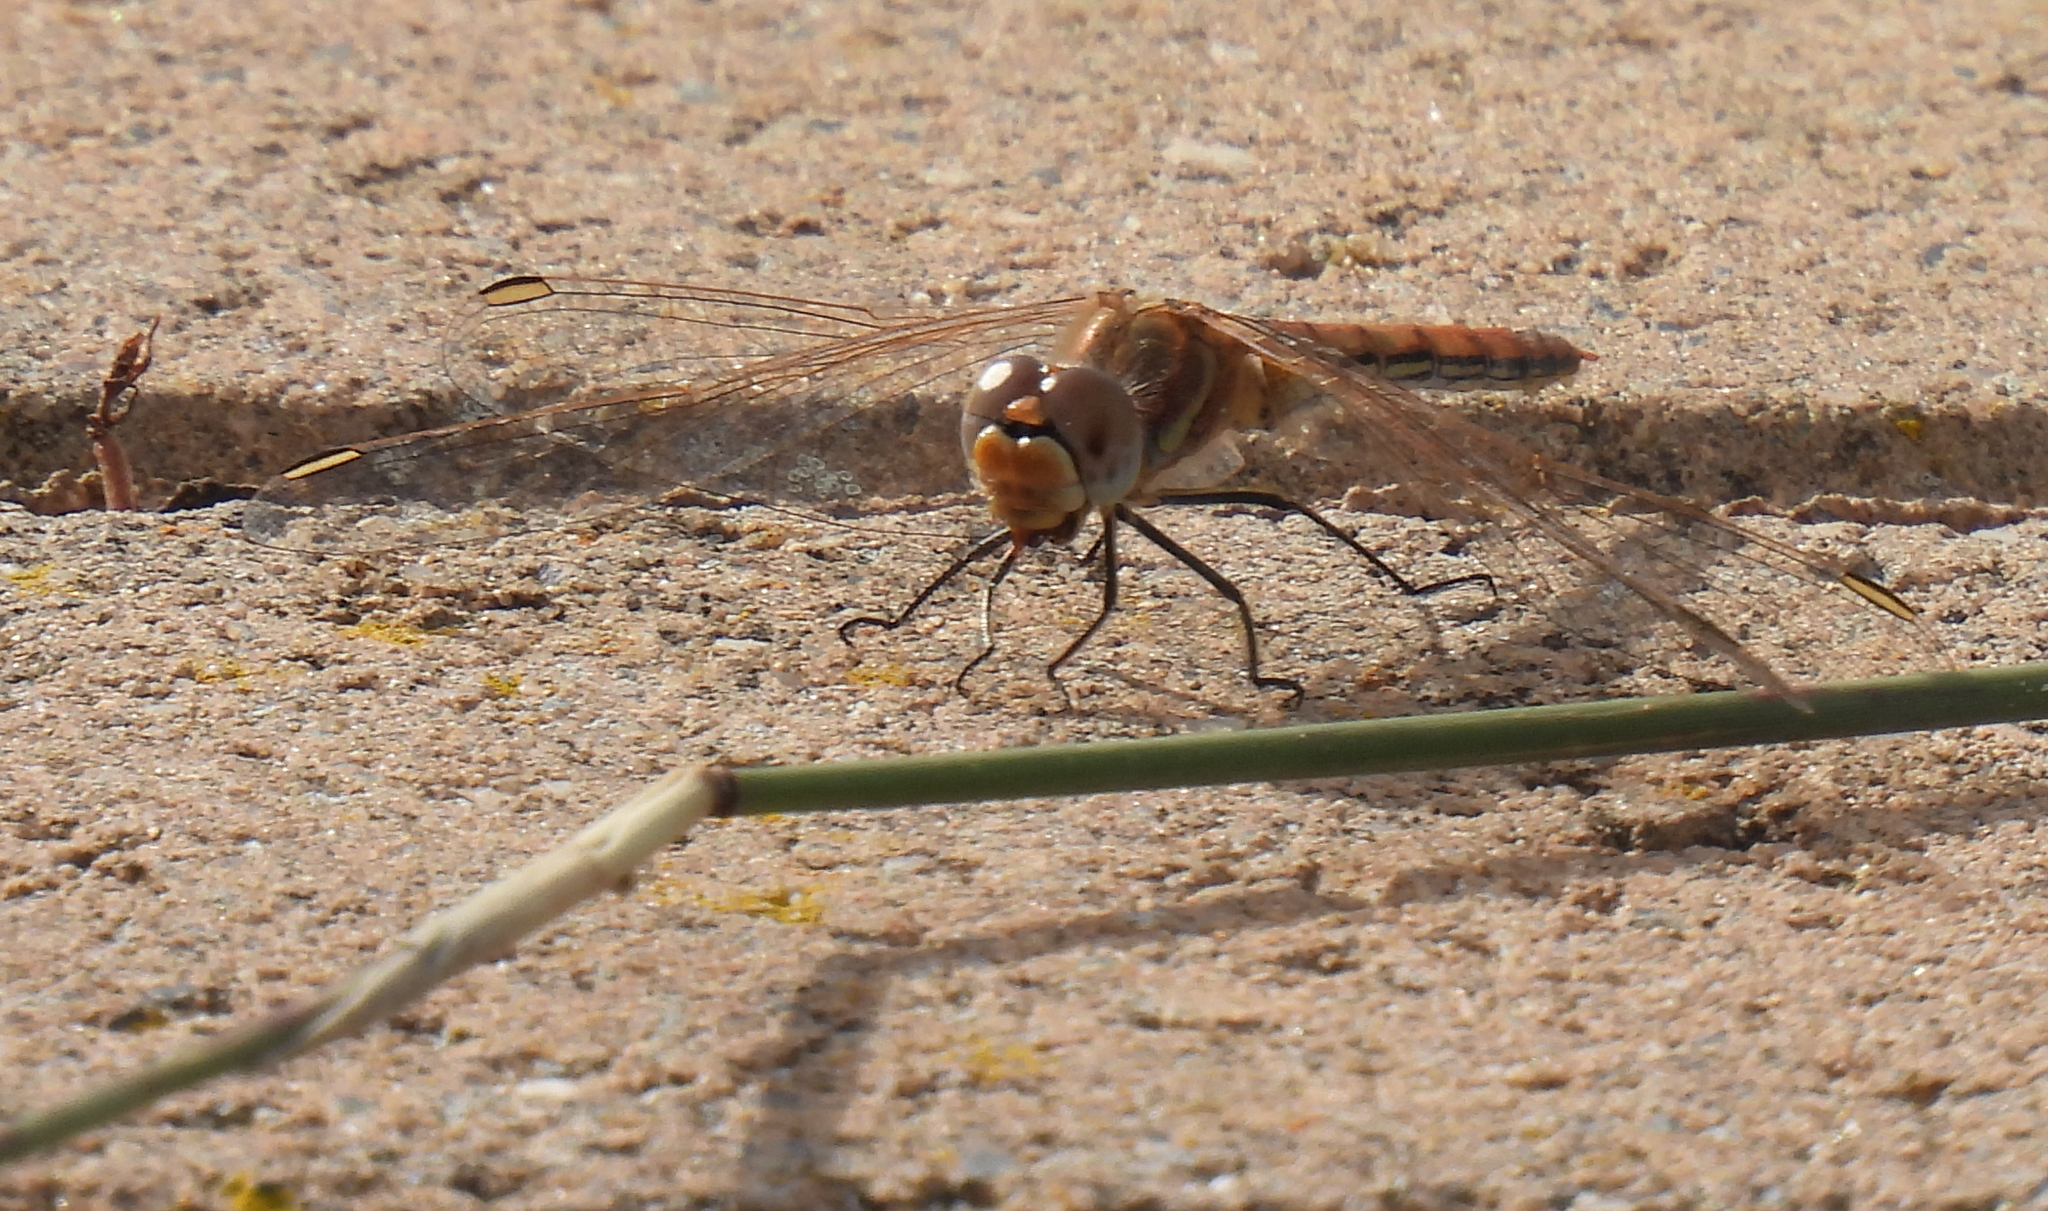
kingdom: Animalia
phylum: Arthropoda
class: Insecta
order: Odonata
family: Libellulidae
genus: Sympetrum
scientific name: Sympetrum fonscolombii
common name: Red-veined darter
